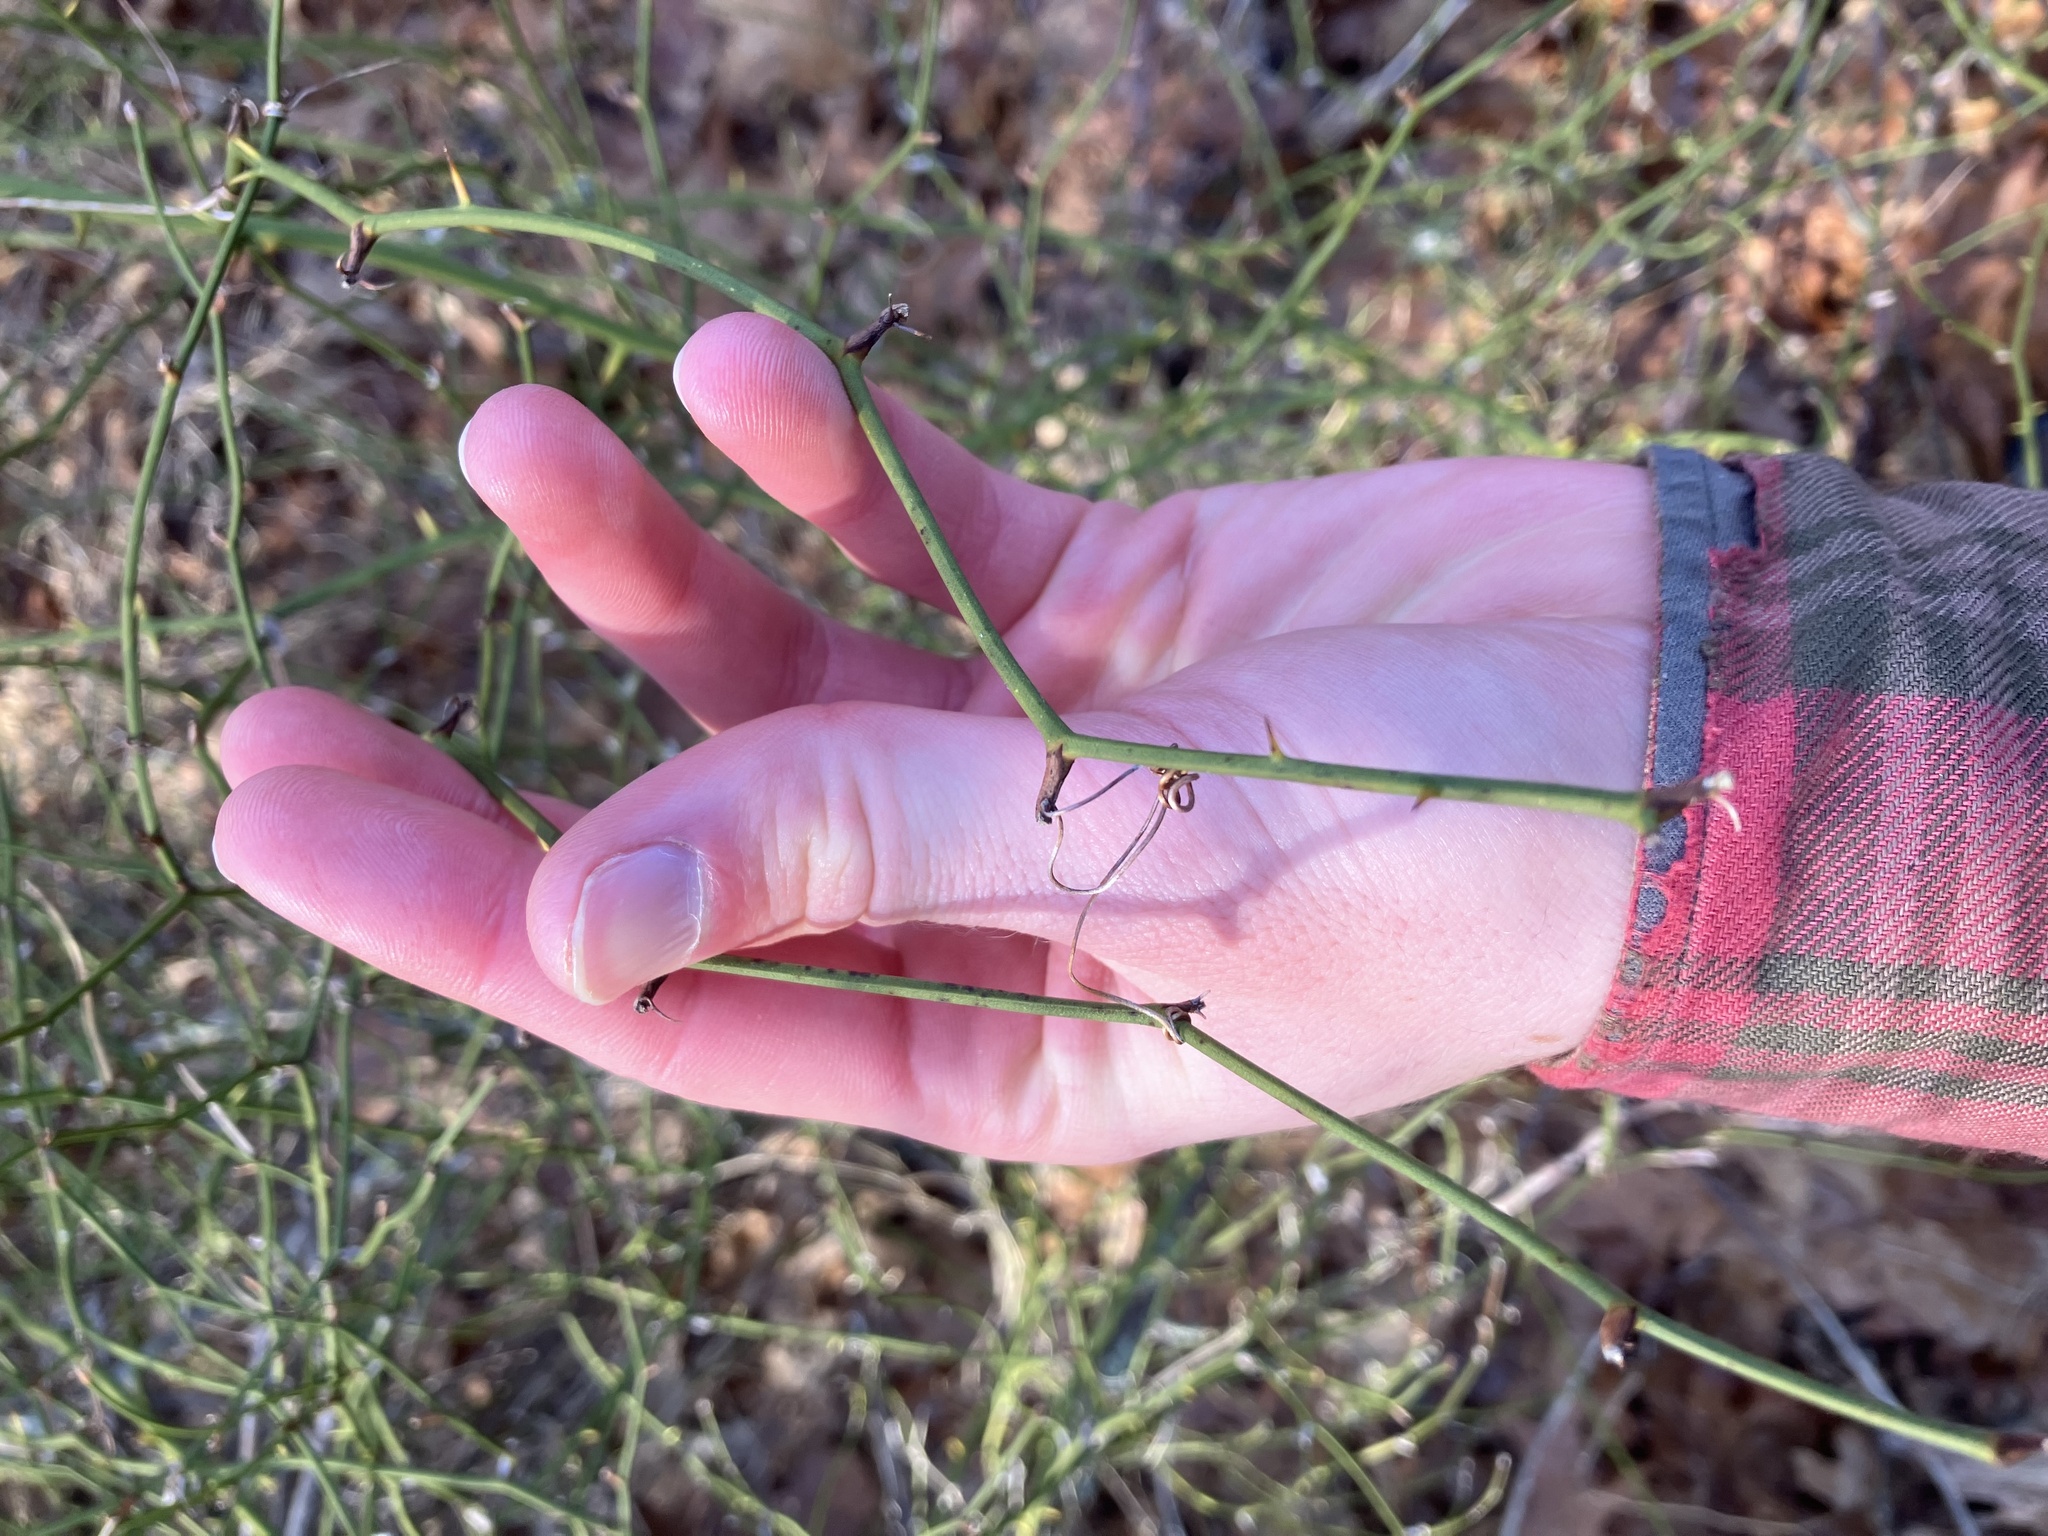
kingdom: Plantae
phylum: Tracheophyta
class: Liliopsida
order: Liliales
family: Smilacaceae
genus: Smilax
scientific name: Smilax rotundifolia
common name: Bullbriar
